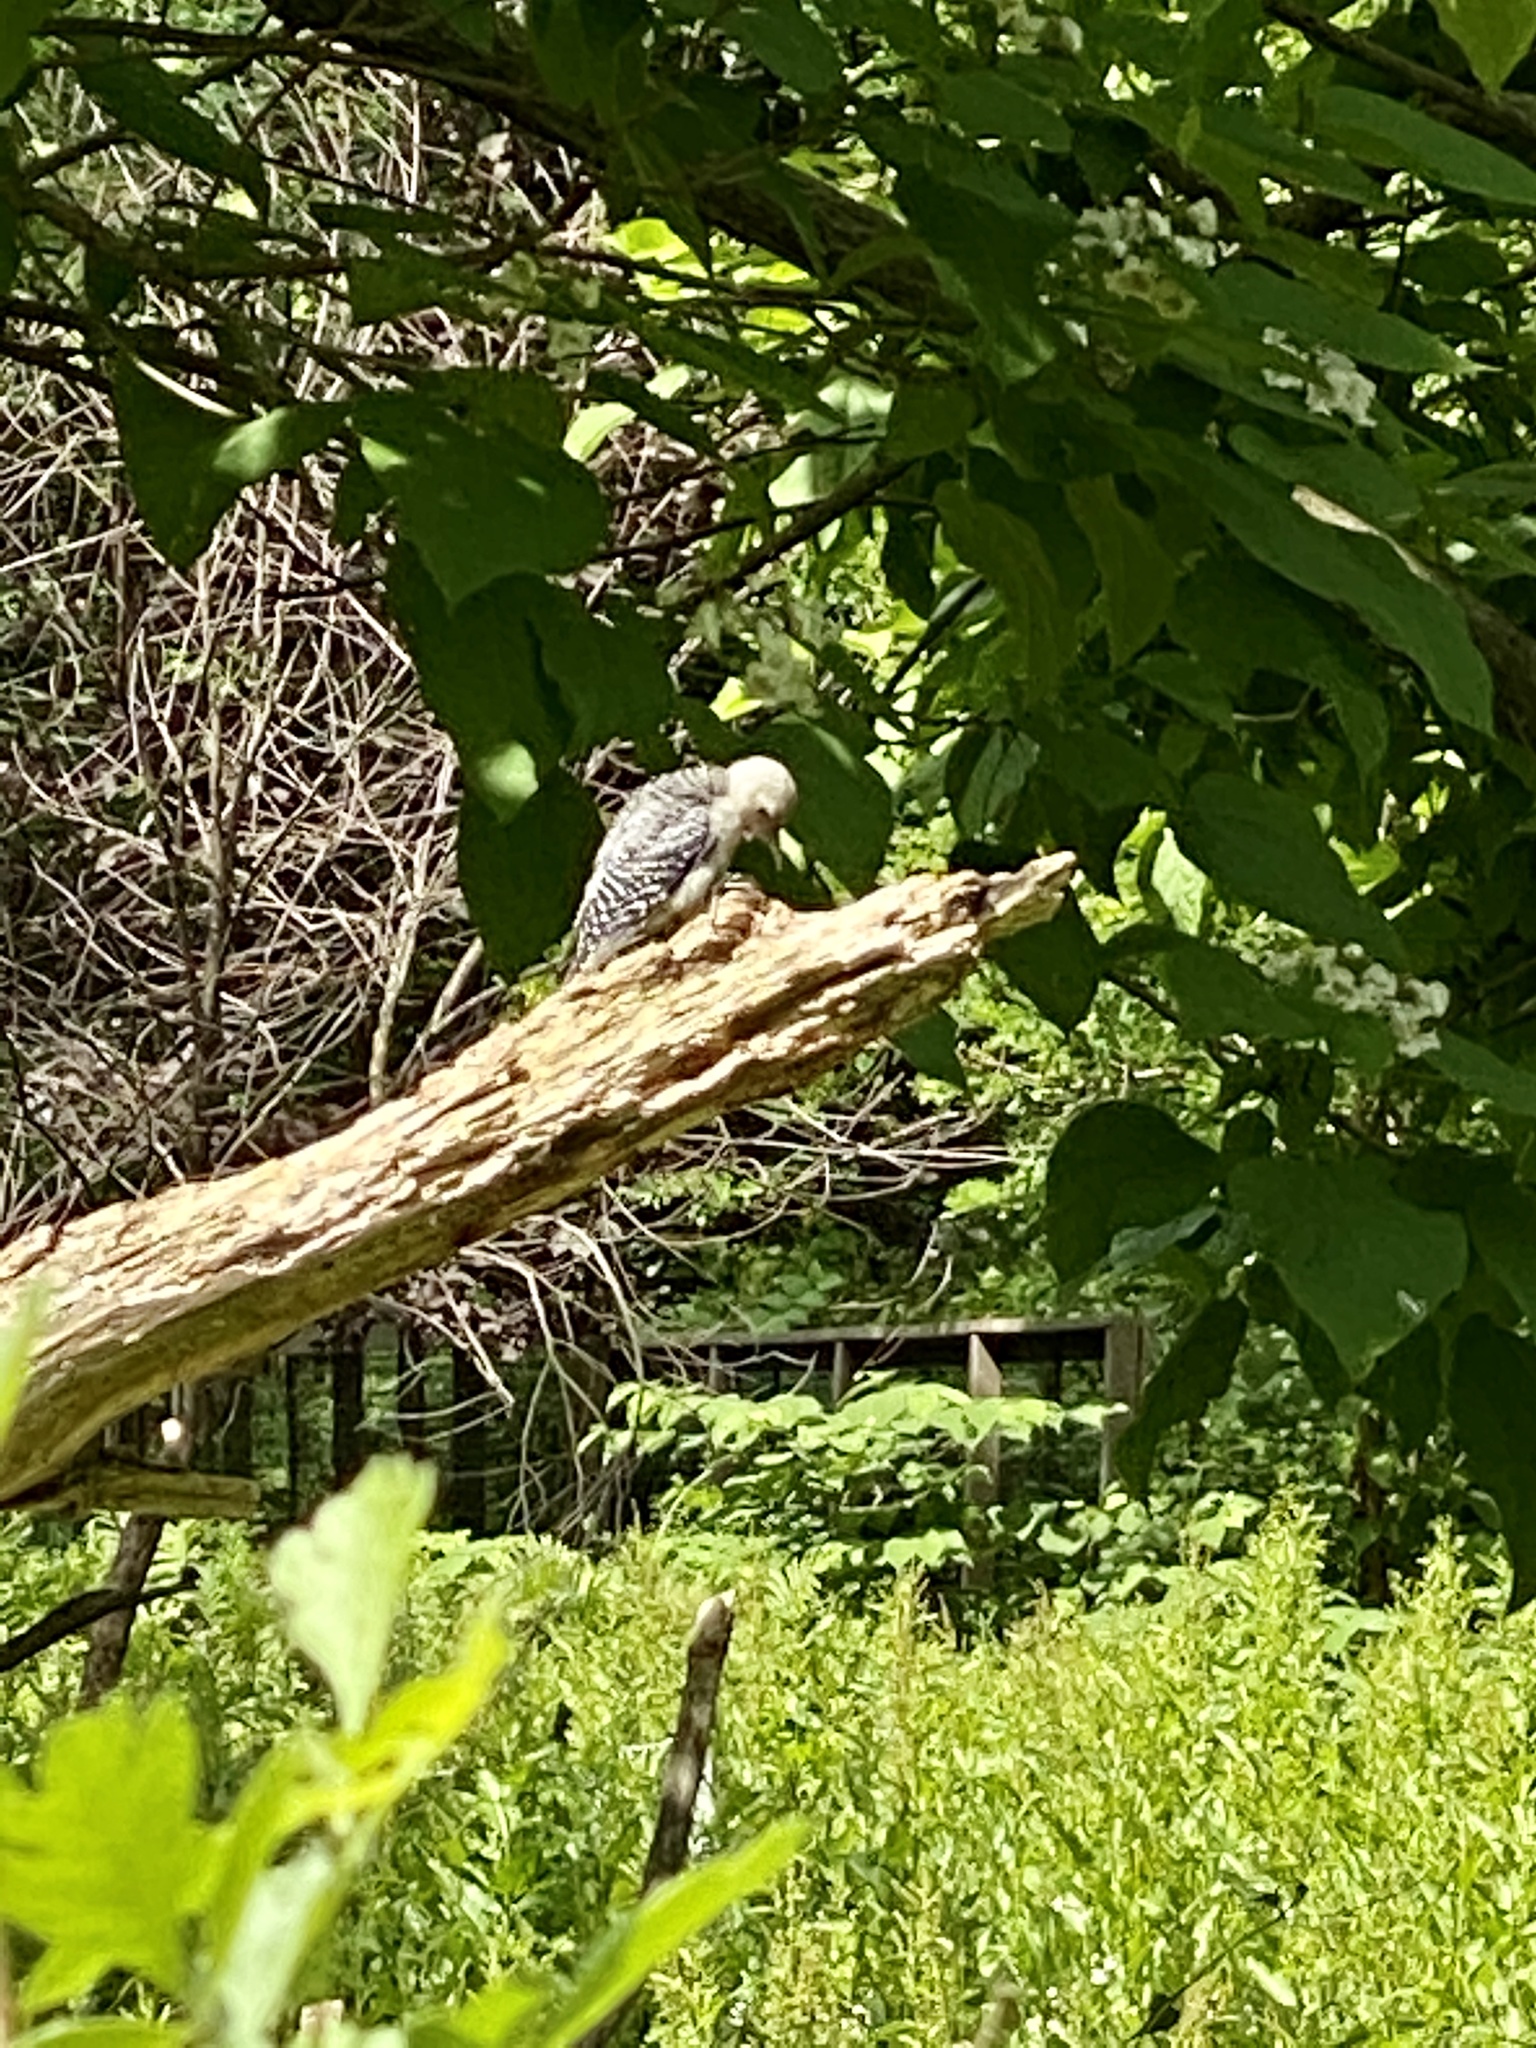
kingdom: Animalia
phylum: Chordata
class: Aves
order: Piciformes
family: Picidae
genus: Melanerpes
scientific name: Melanerpes carolinus
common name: Red-bellied woodpecker
